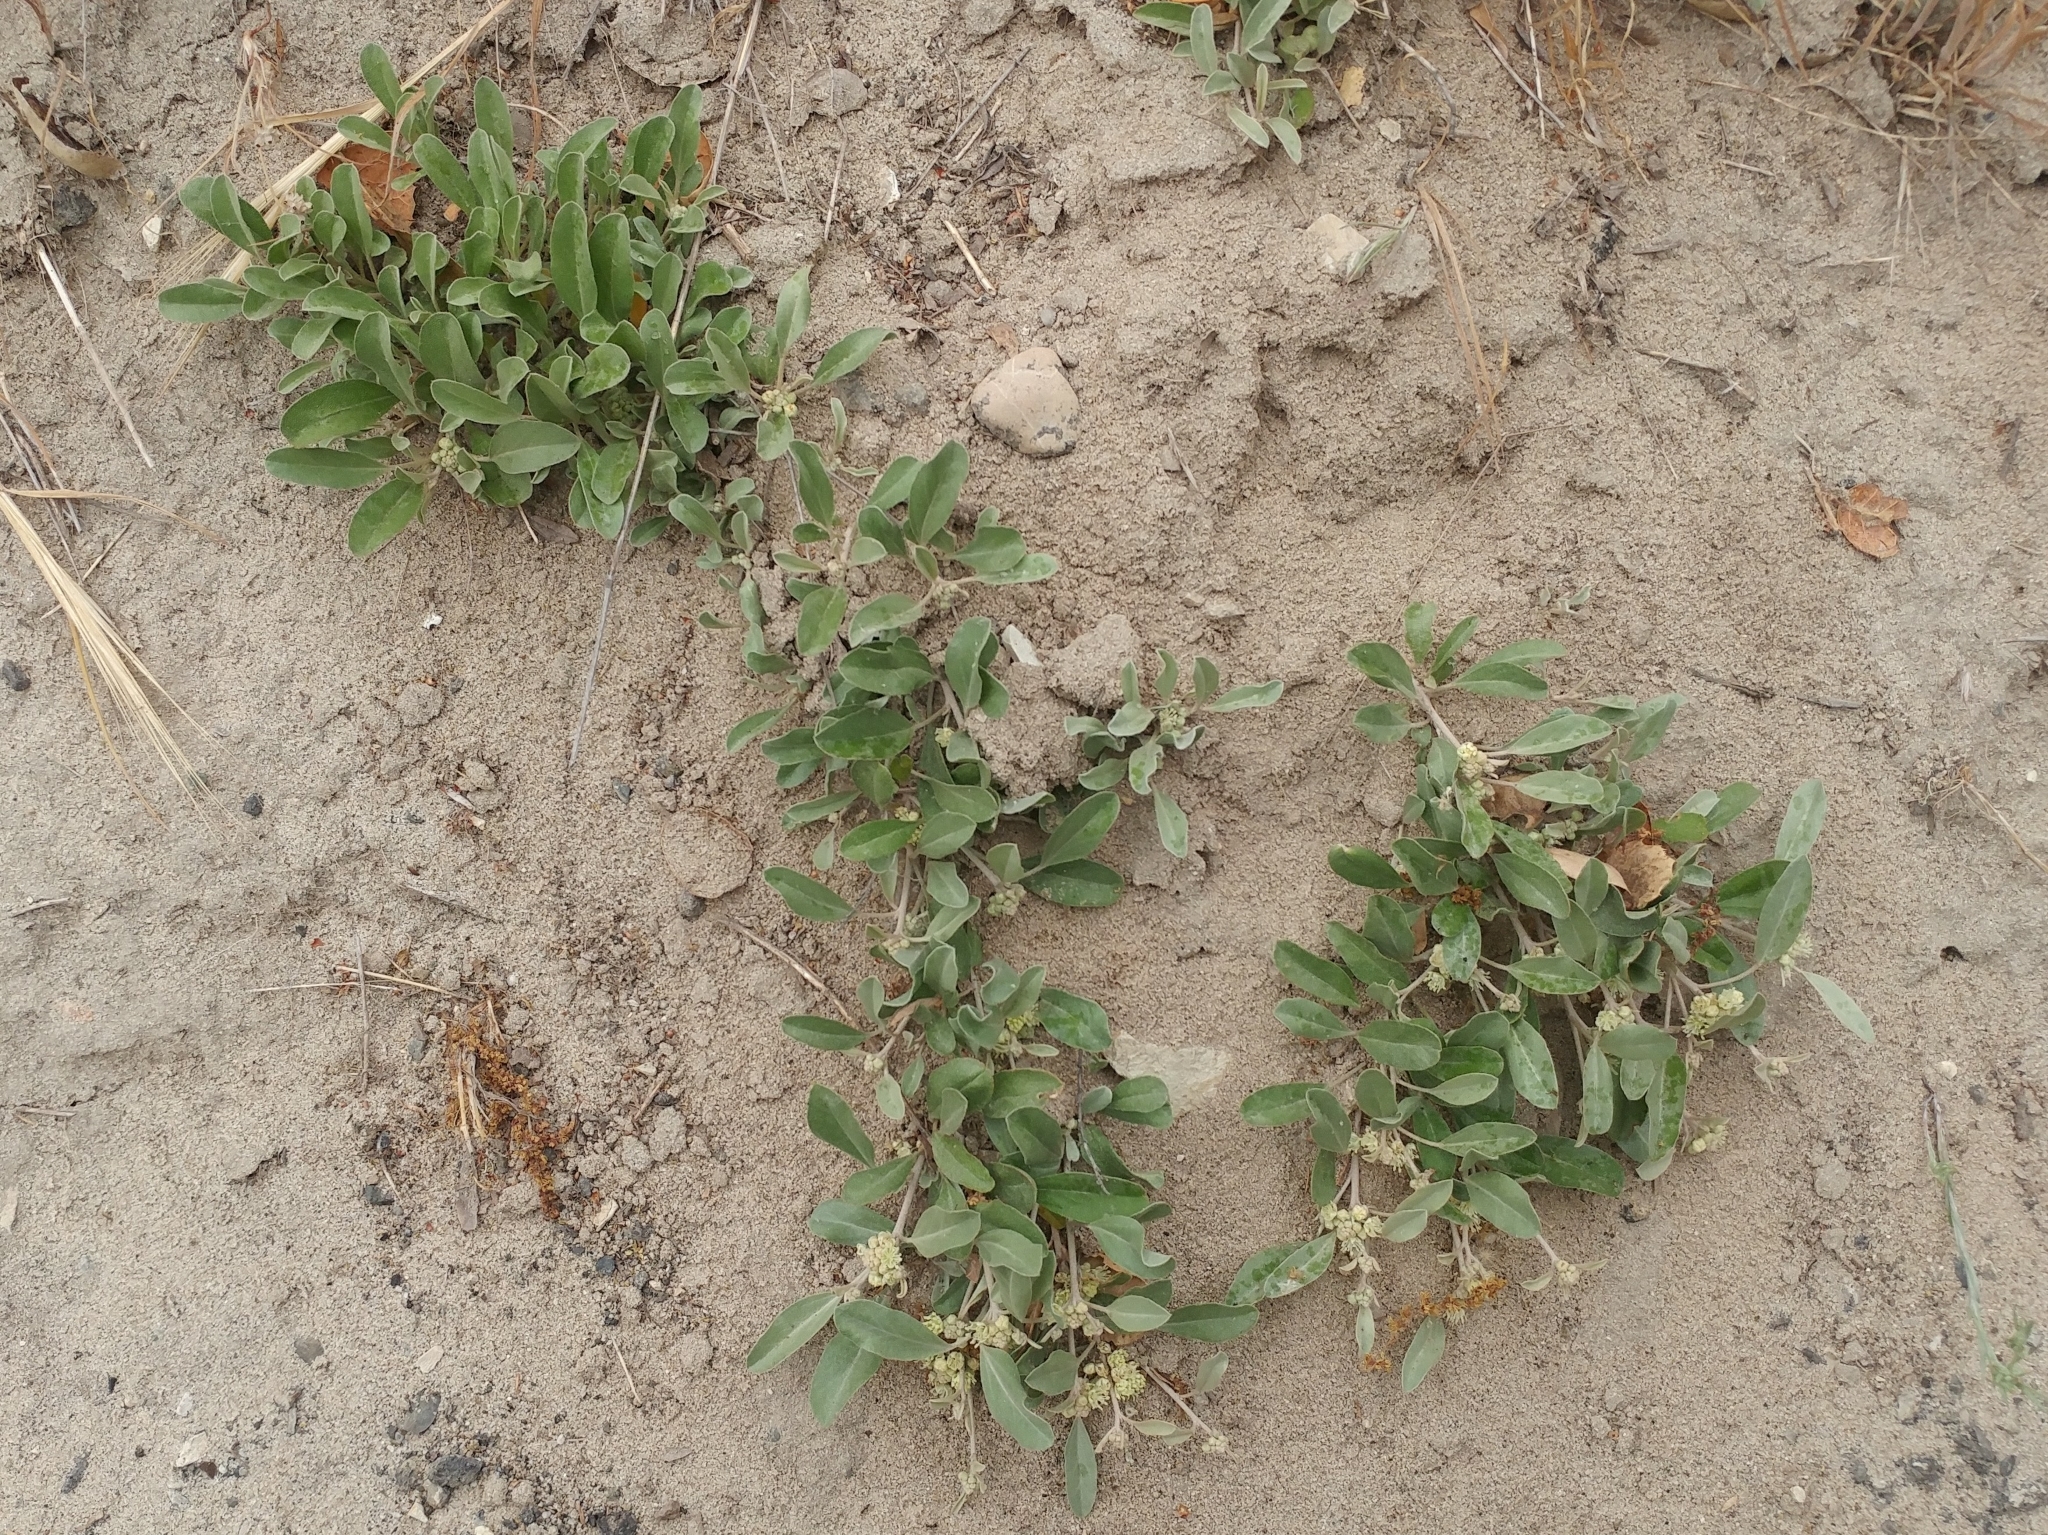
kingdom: Plantae
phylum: Tracheophyta
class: Magnoliopsida
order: Malpighiales
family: Euphorbiaceae
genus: Croton
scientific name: Croton californicus
